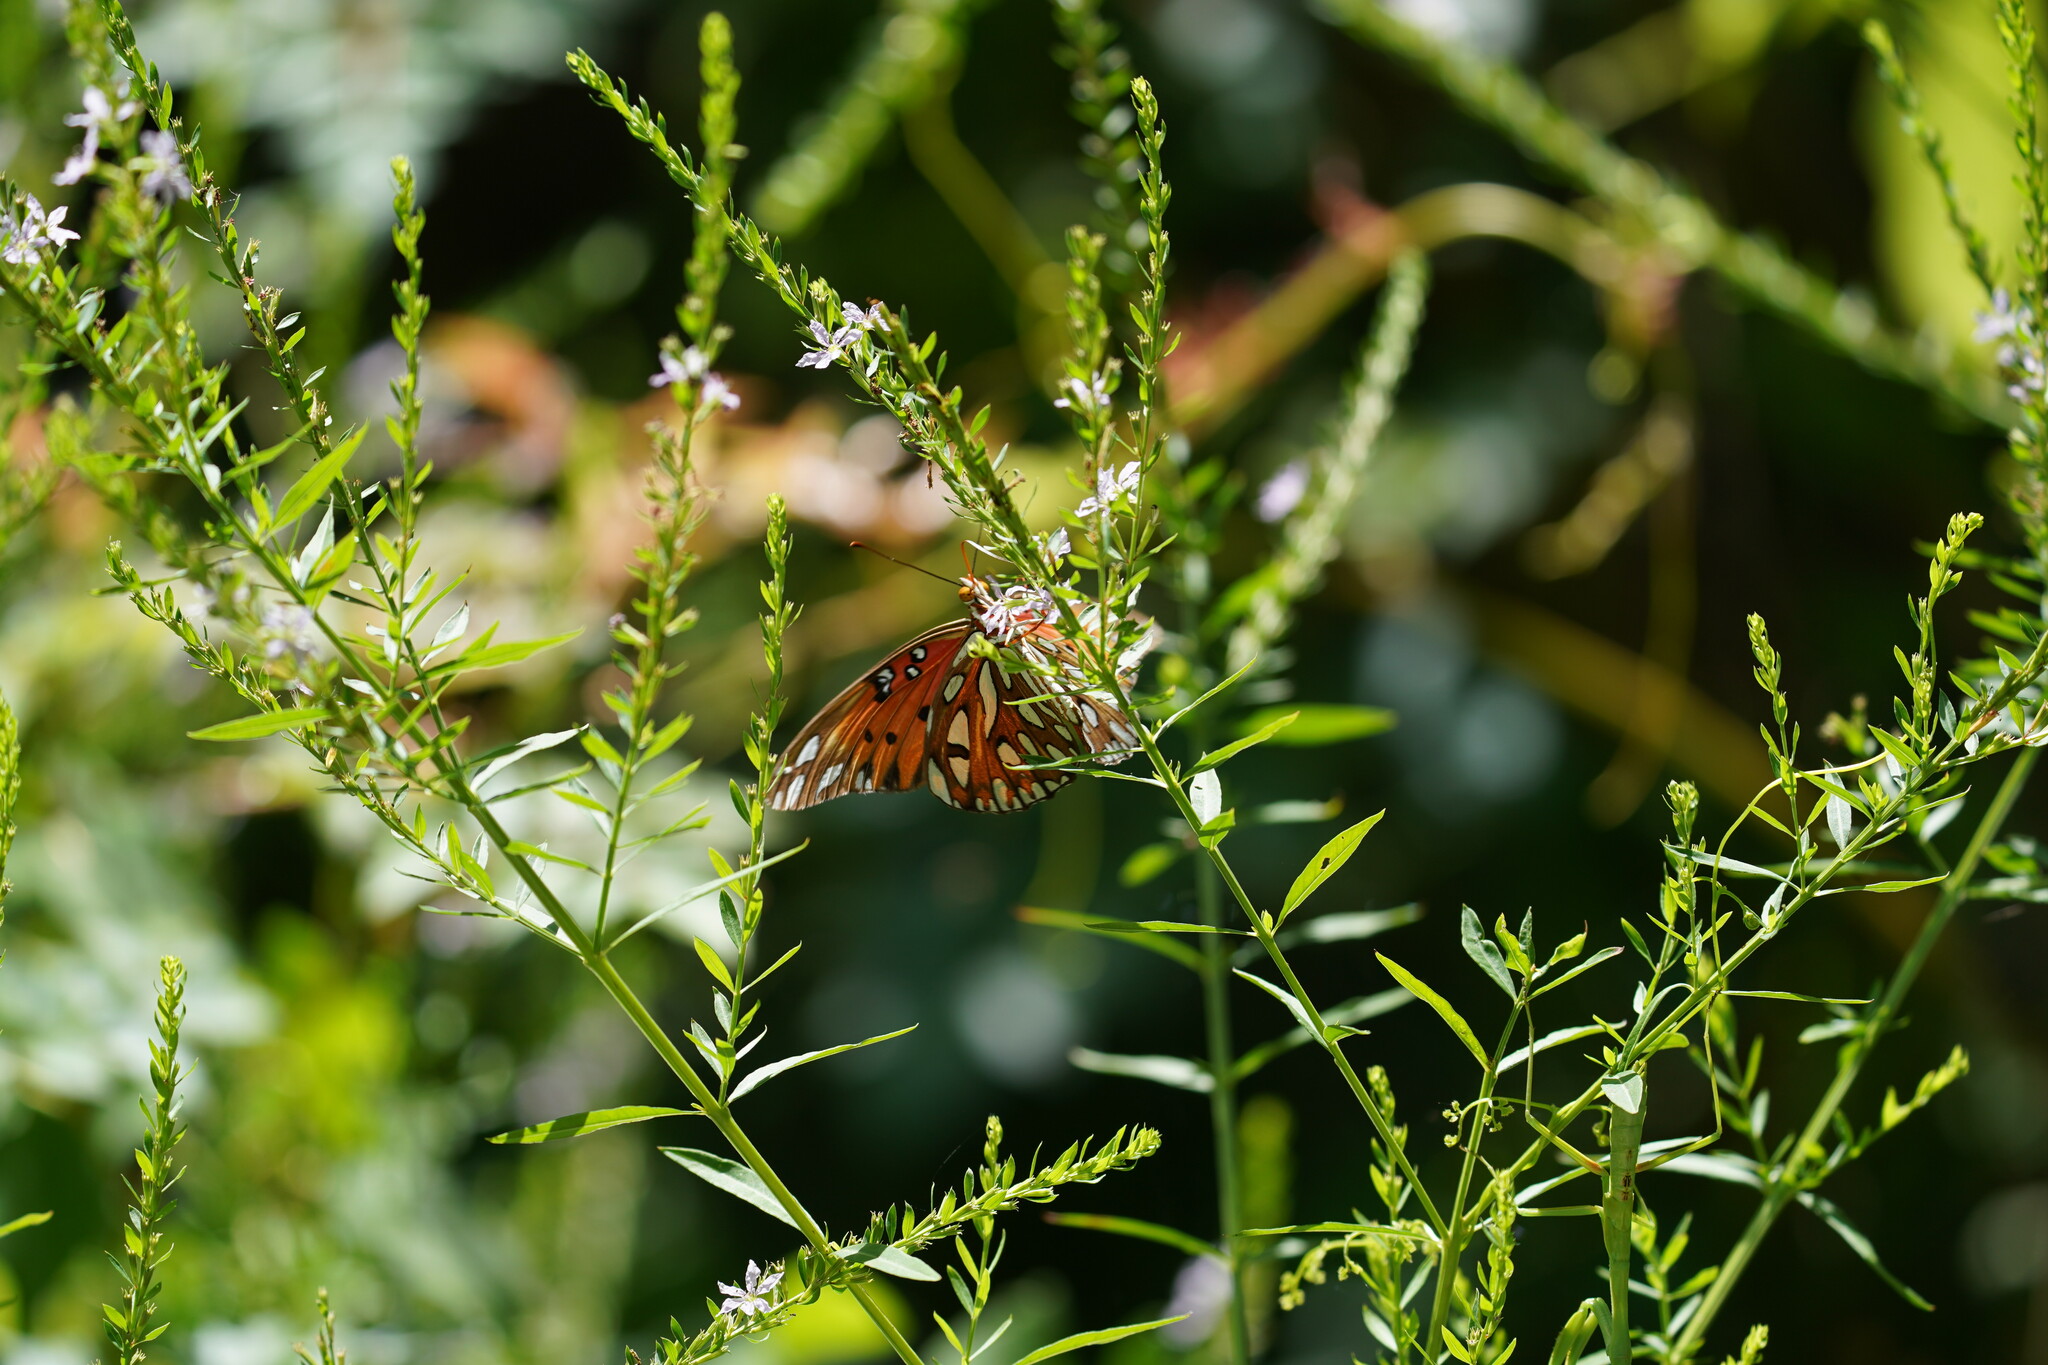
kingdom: Animalia
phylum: Arthropoda
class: Insecta
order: Lepidoptera
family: Nymphalidae
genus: Dione
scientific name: Dione vanillae
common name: Gulf fritillary
